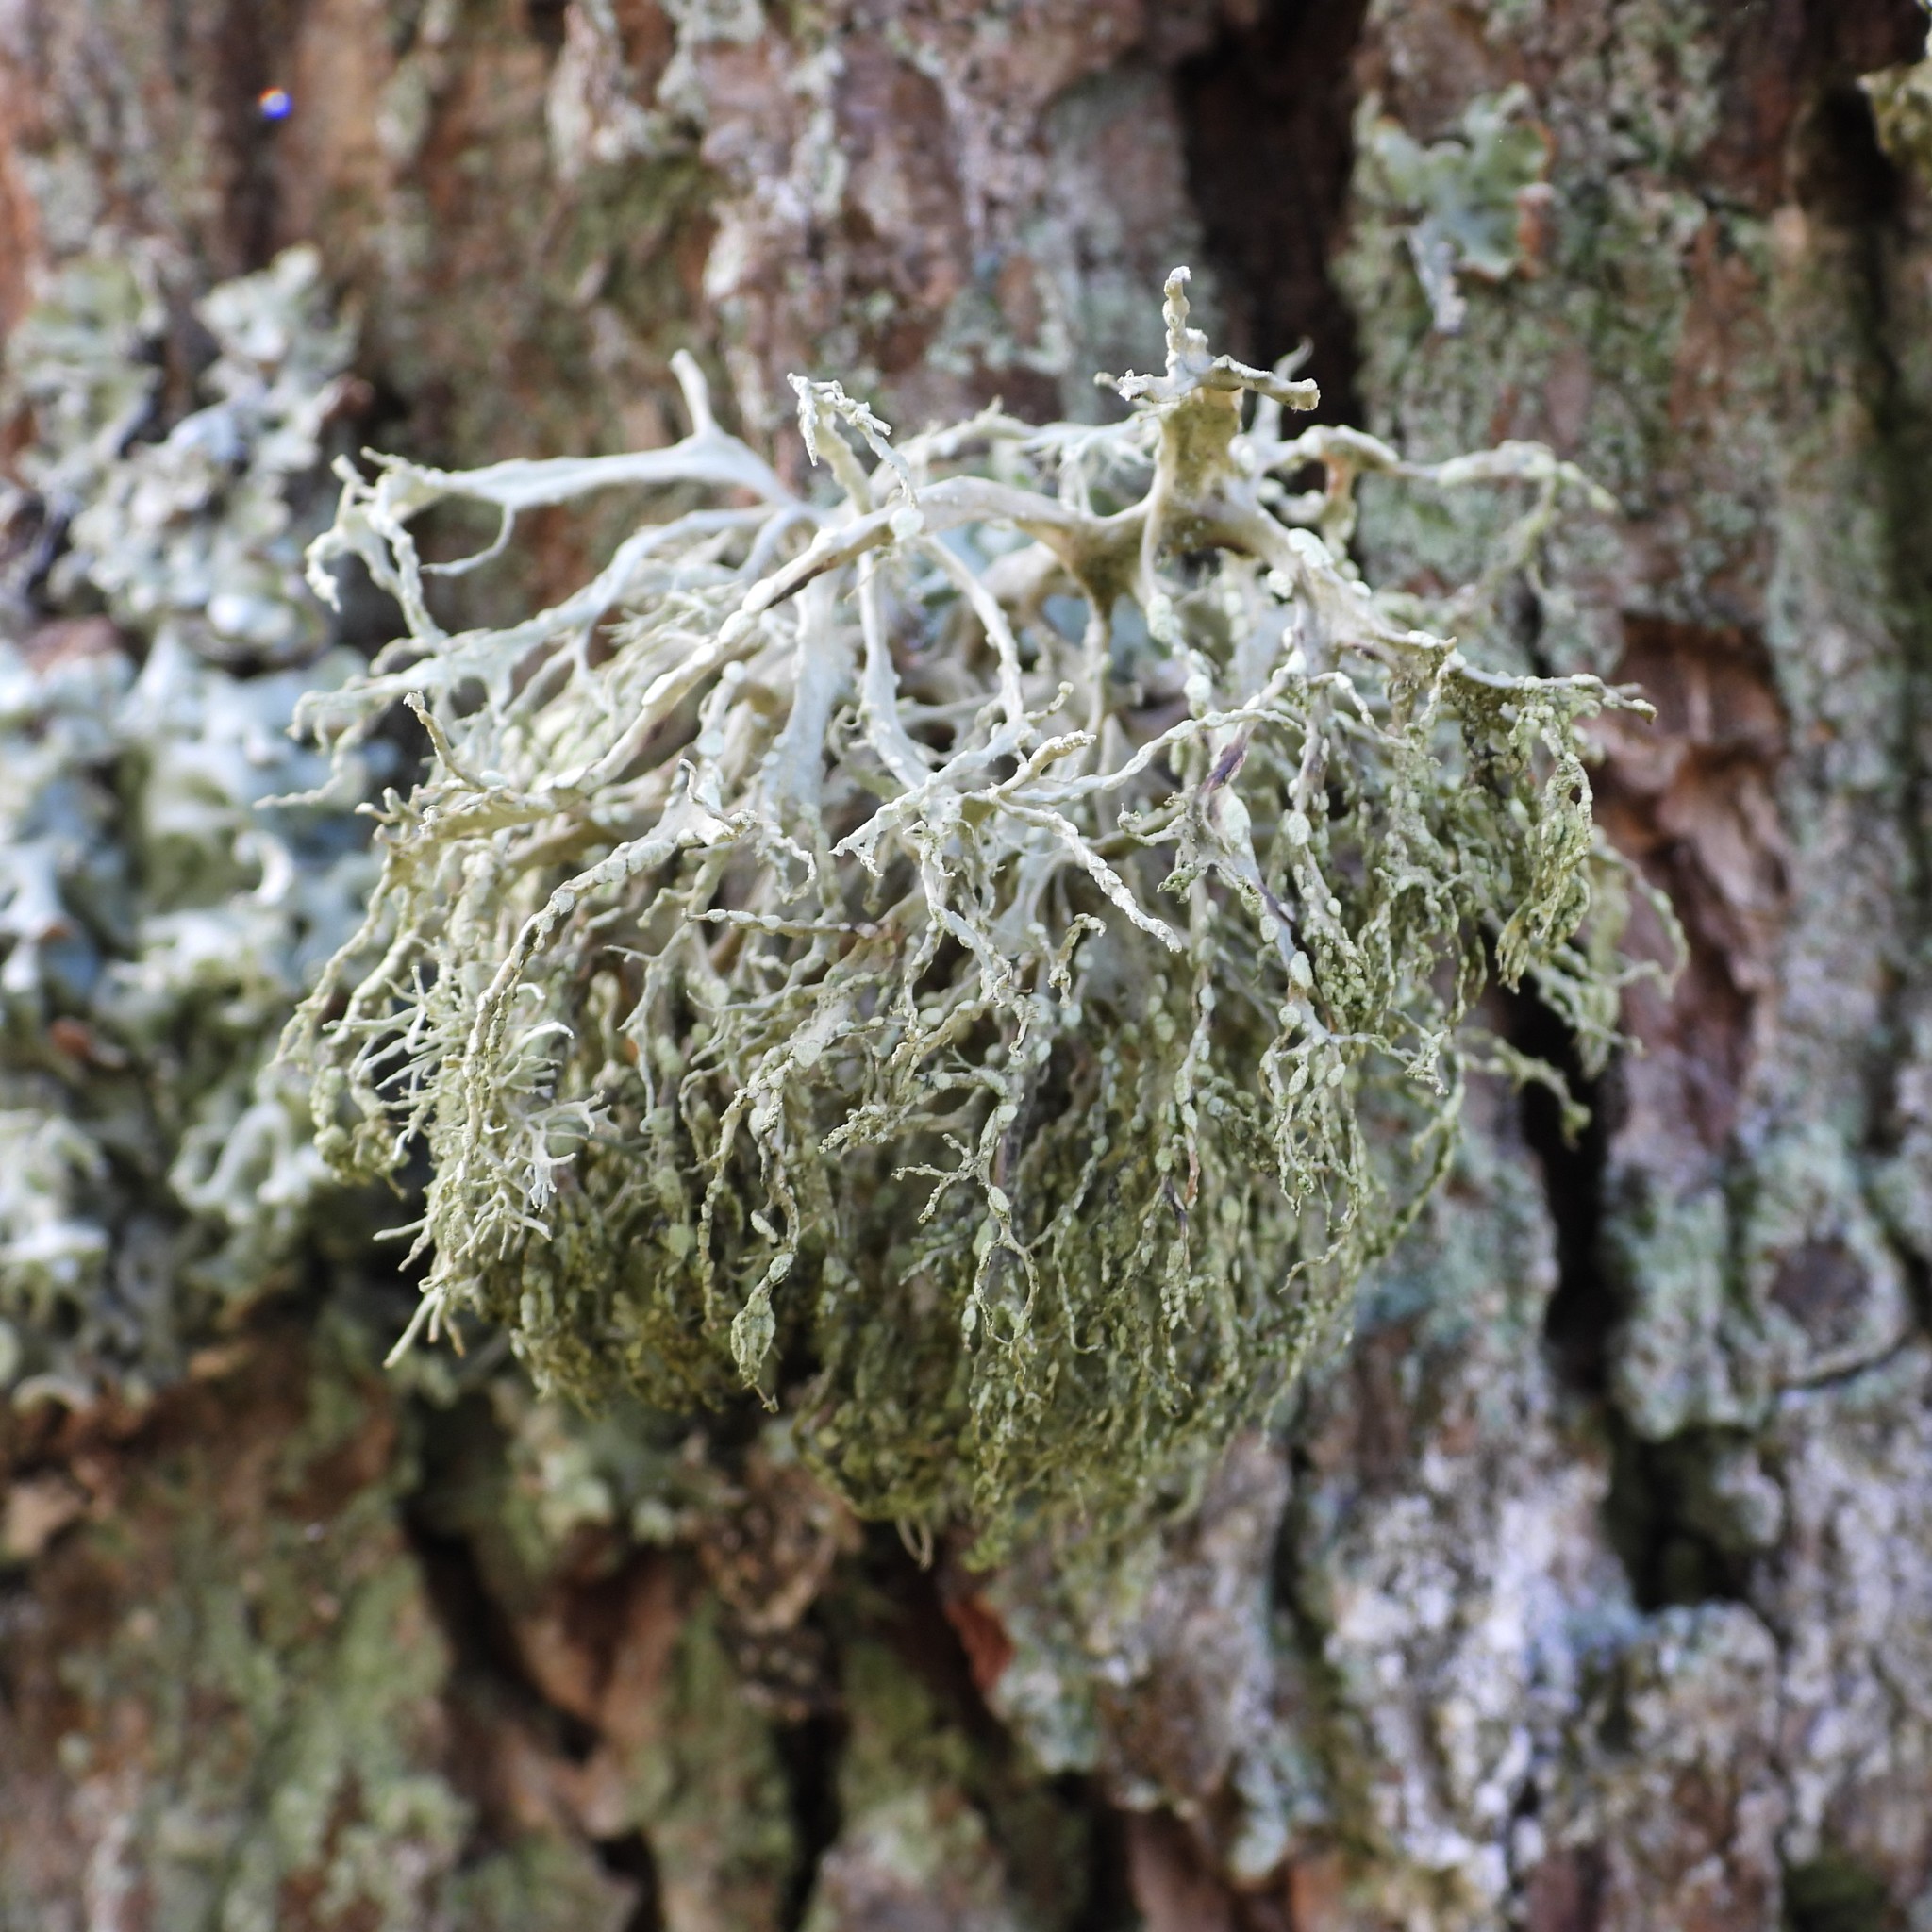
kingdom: Fungi
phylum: Ascomycota
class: Lecanoromycetes
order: Lecanorales
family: Ramalinaceae
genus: Ramalina
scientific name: Ramalina farinacea
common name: Farinose cartilage lichen
